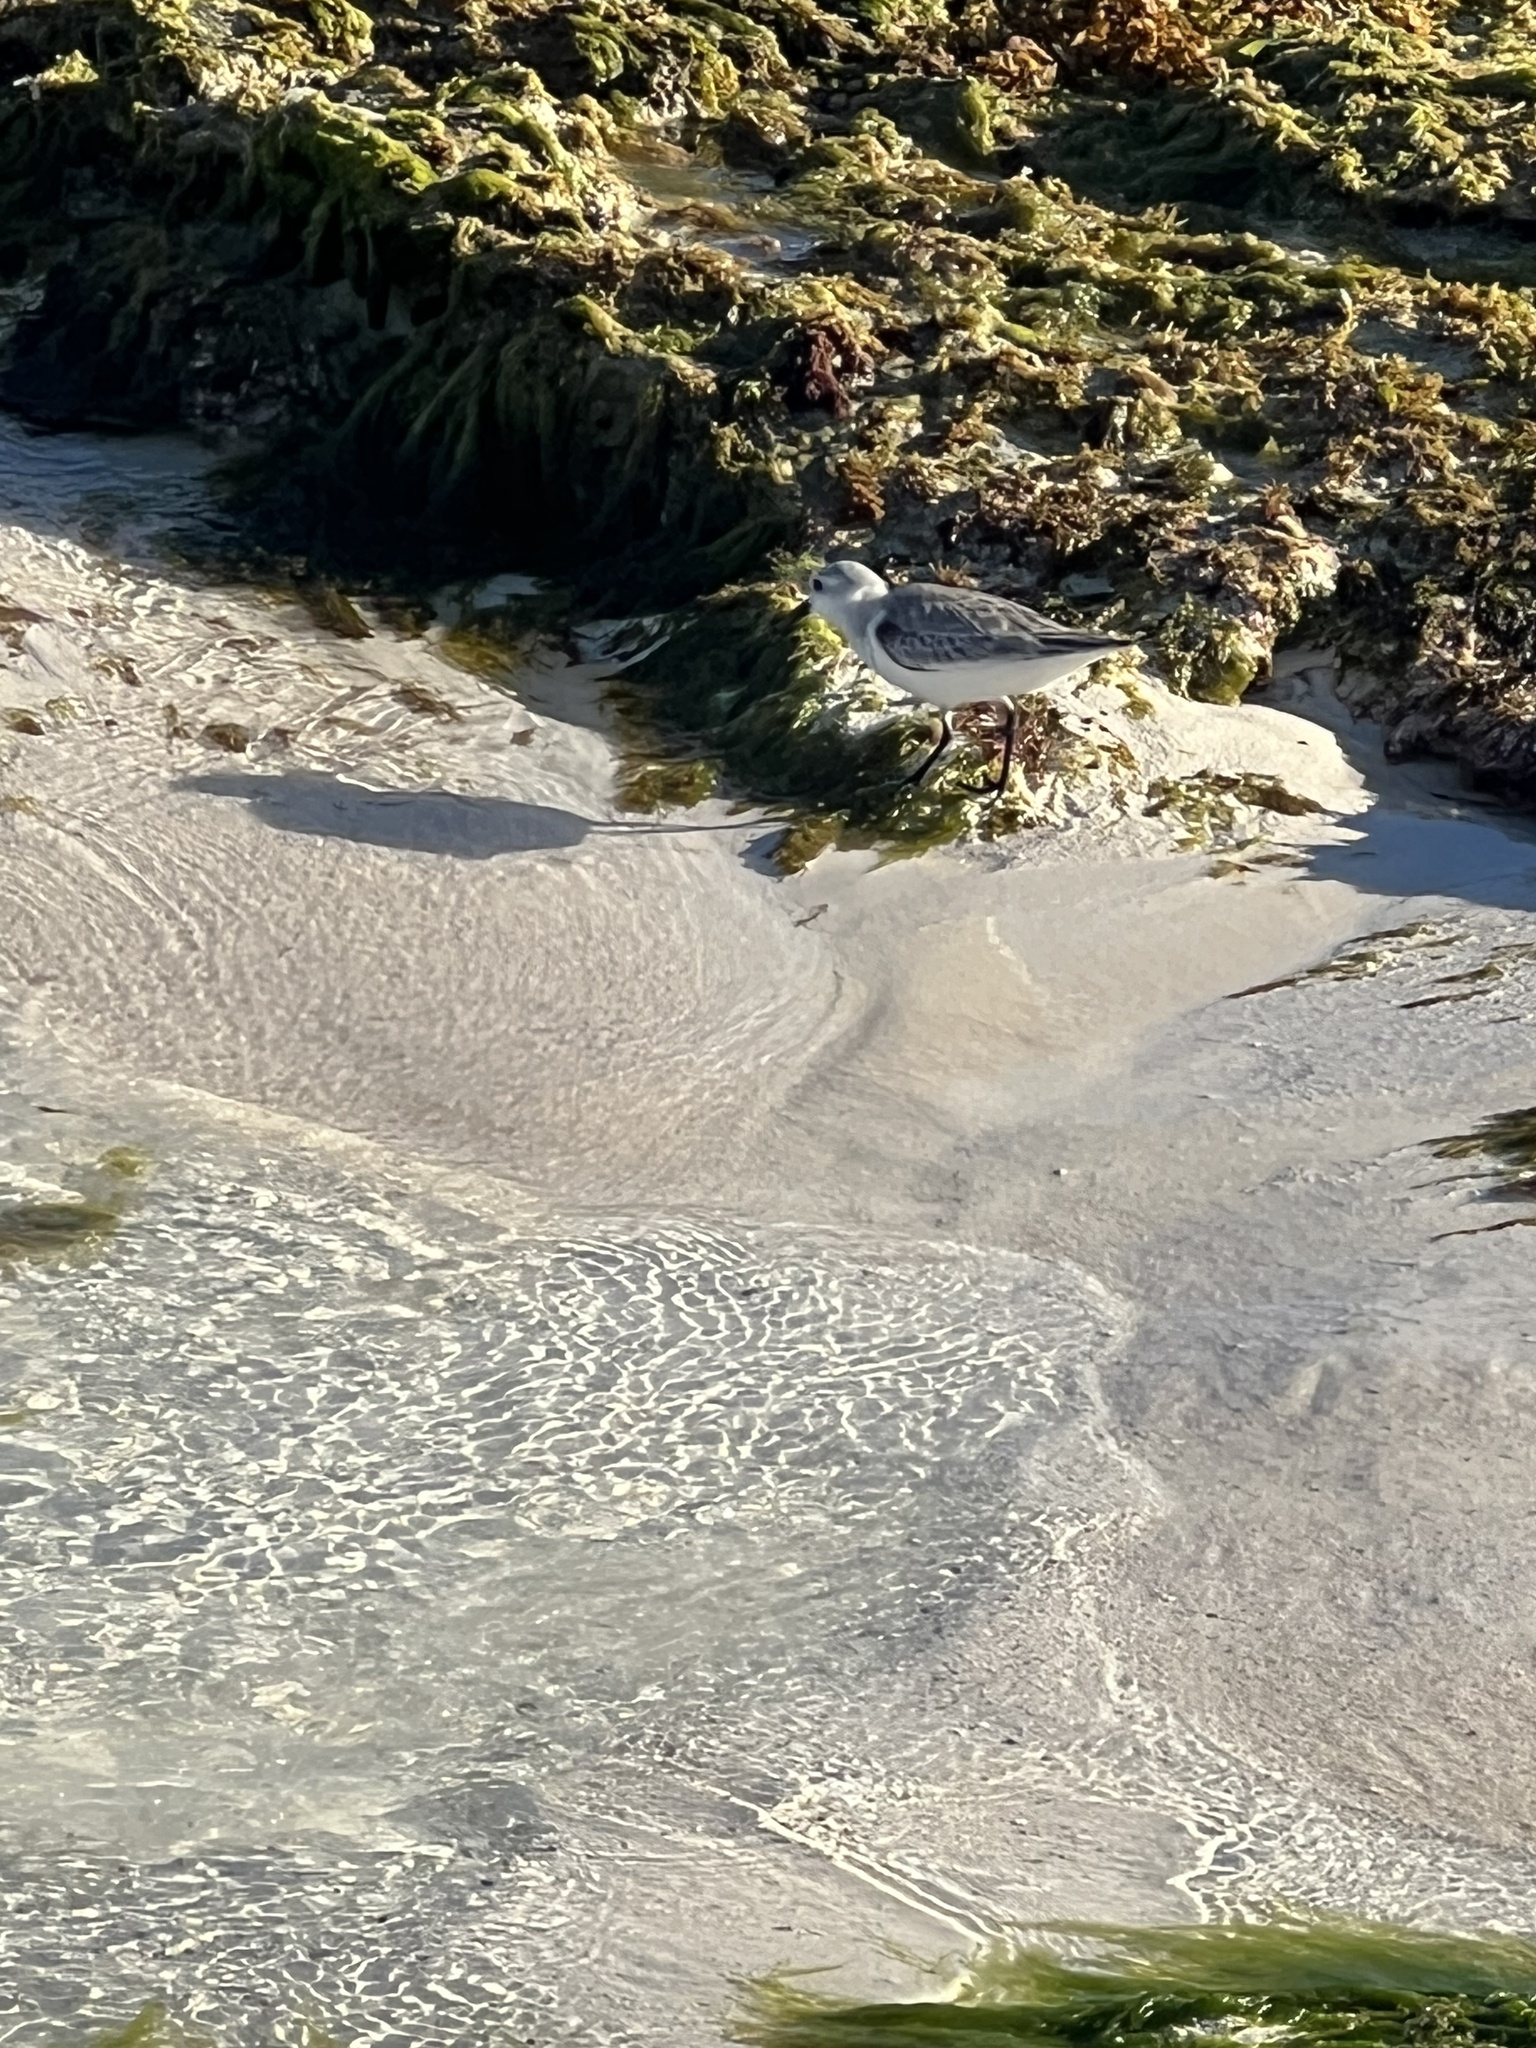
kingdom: Animalia
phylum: Chordata
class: Aves
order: Charadriiformes
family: Scolopacidae
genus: Calidris
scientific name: Calidris alba
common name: Sanderling
